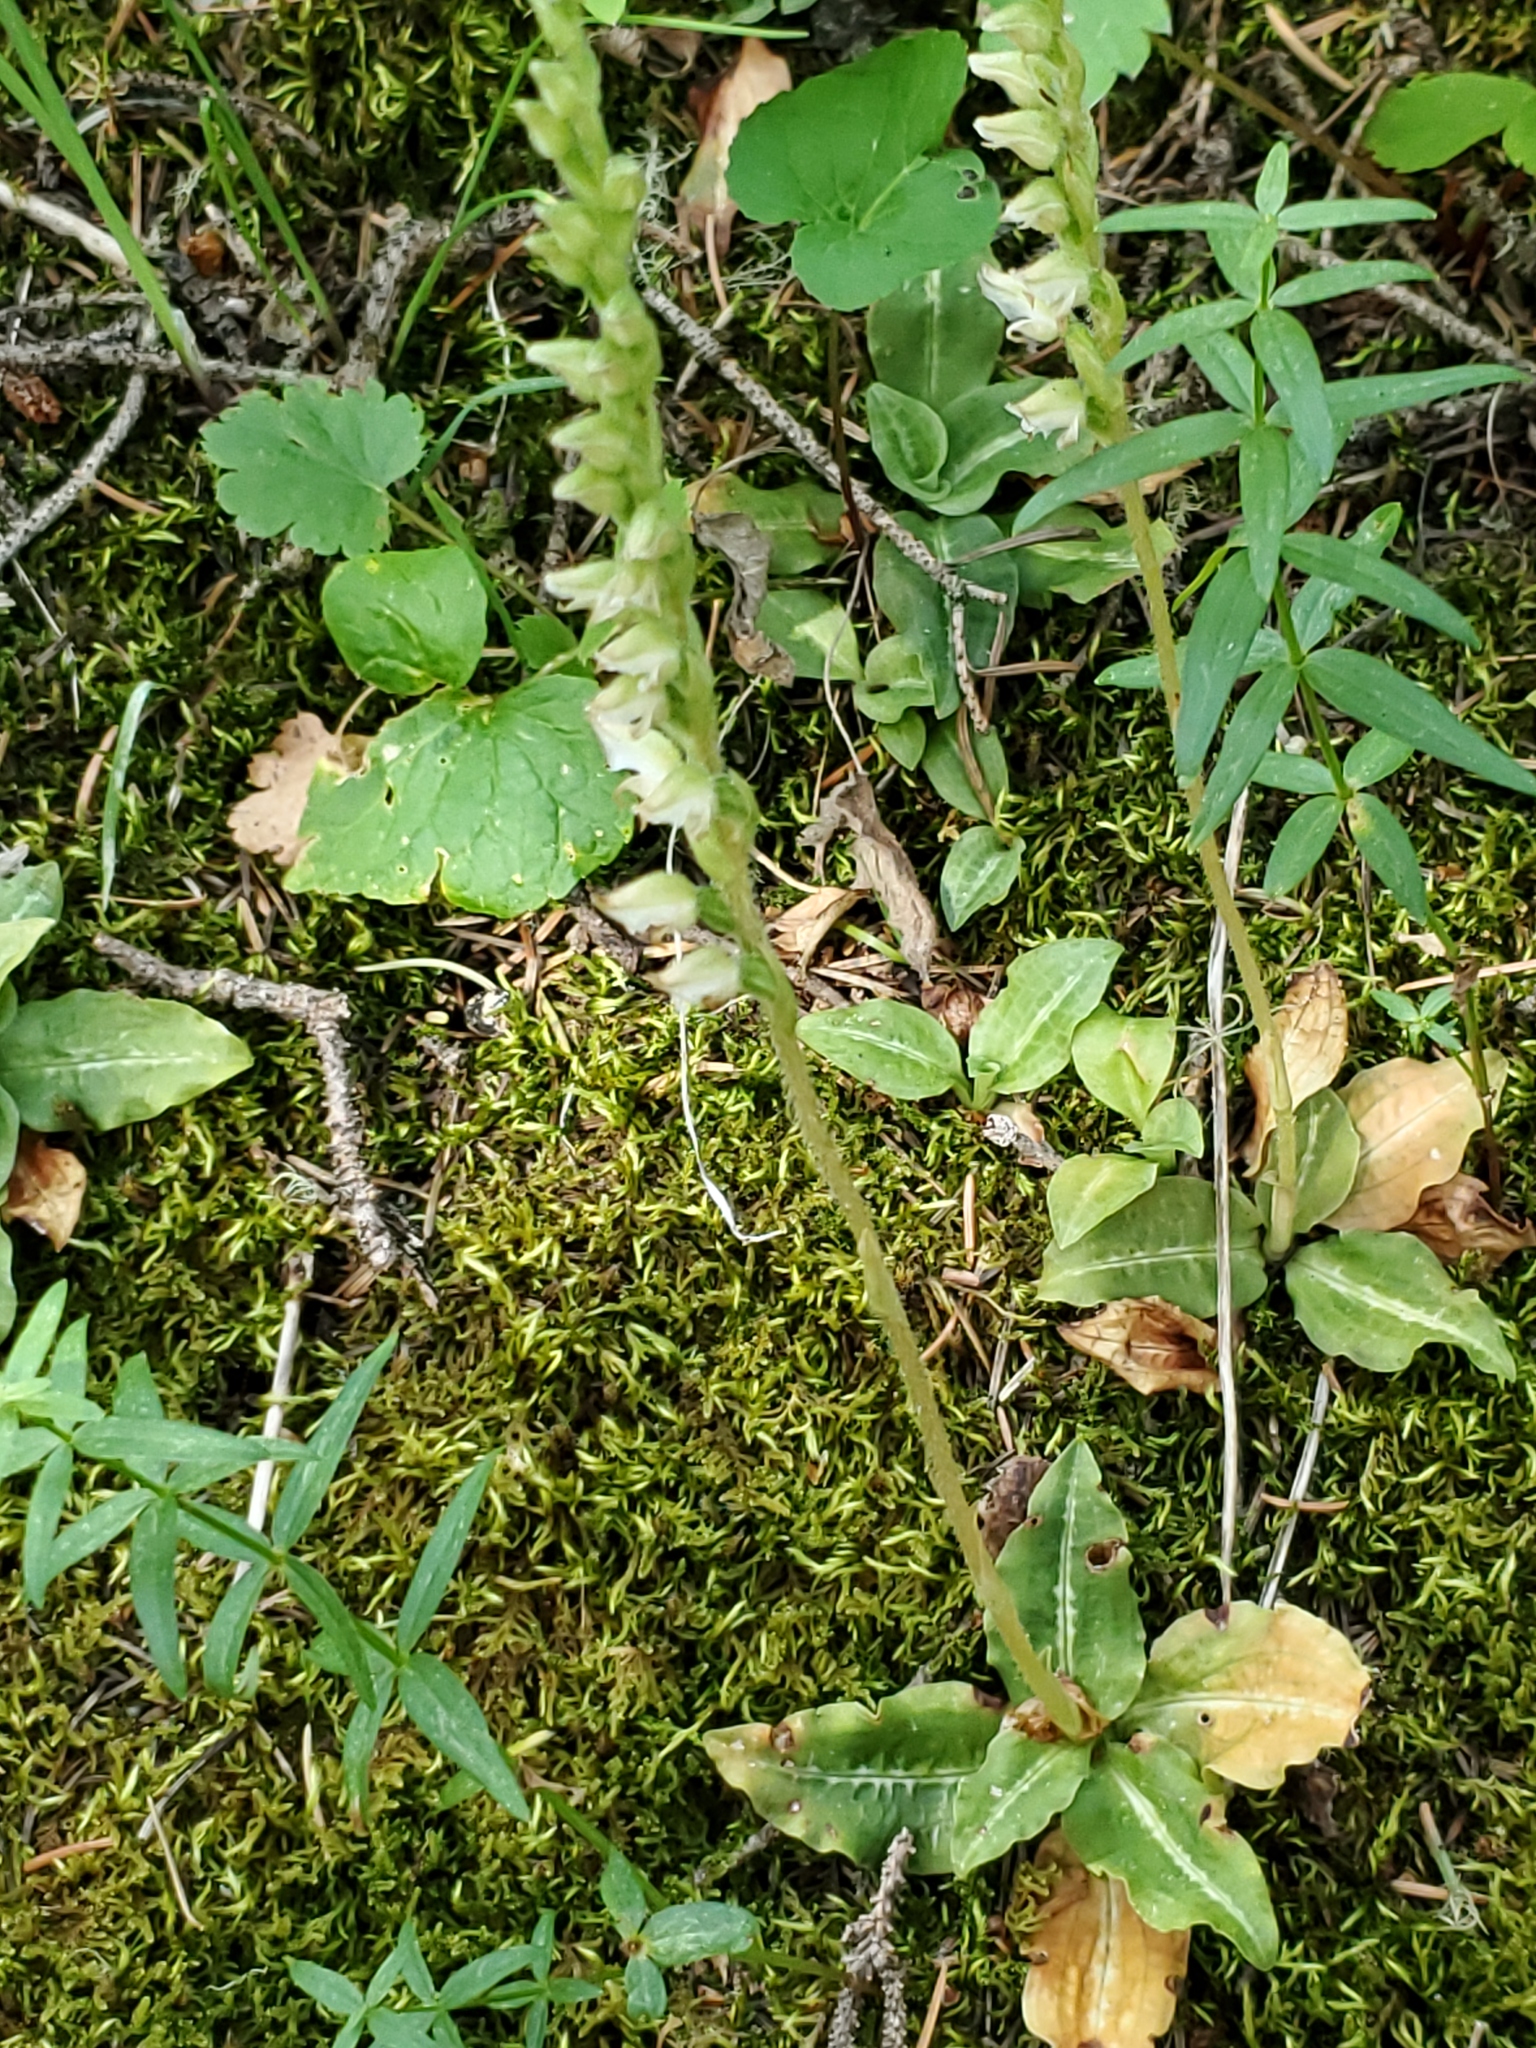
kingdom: Plantae
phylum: Tracheophyta
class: Liliopsida
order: Asparagales
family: Orchidaceae
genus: Goodyera
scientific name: Goodyera oblongifolia
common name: Giant rattlesnake-plantain
